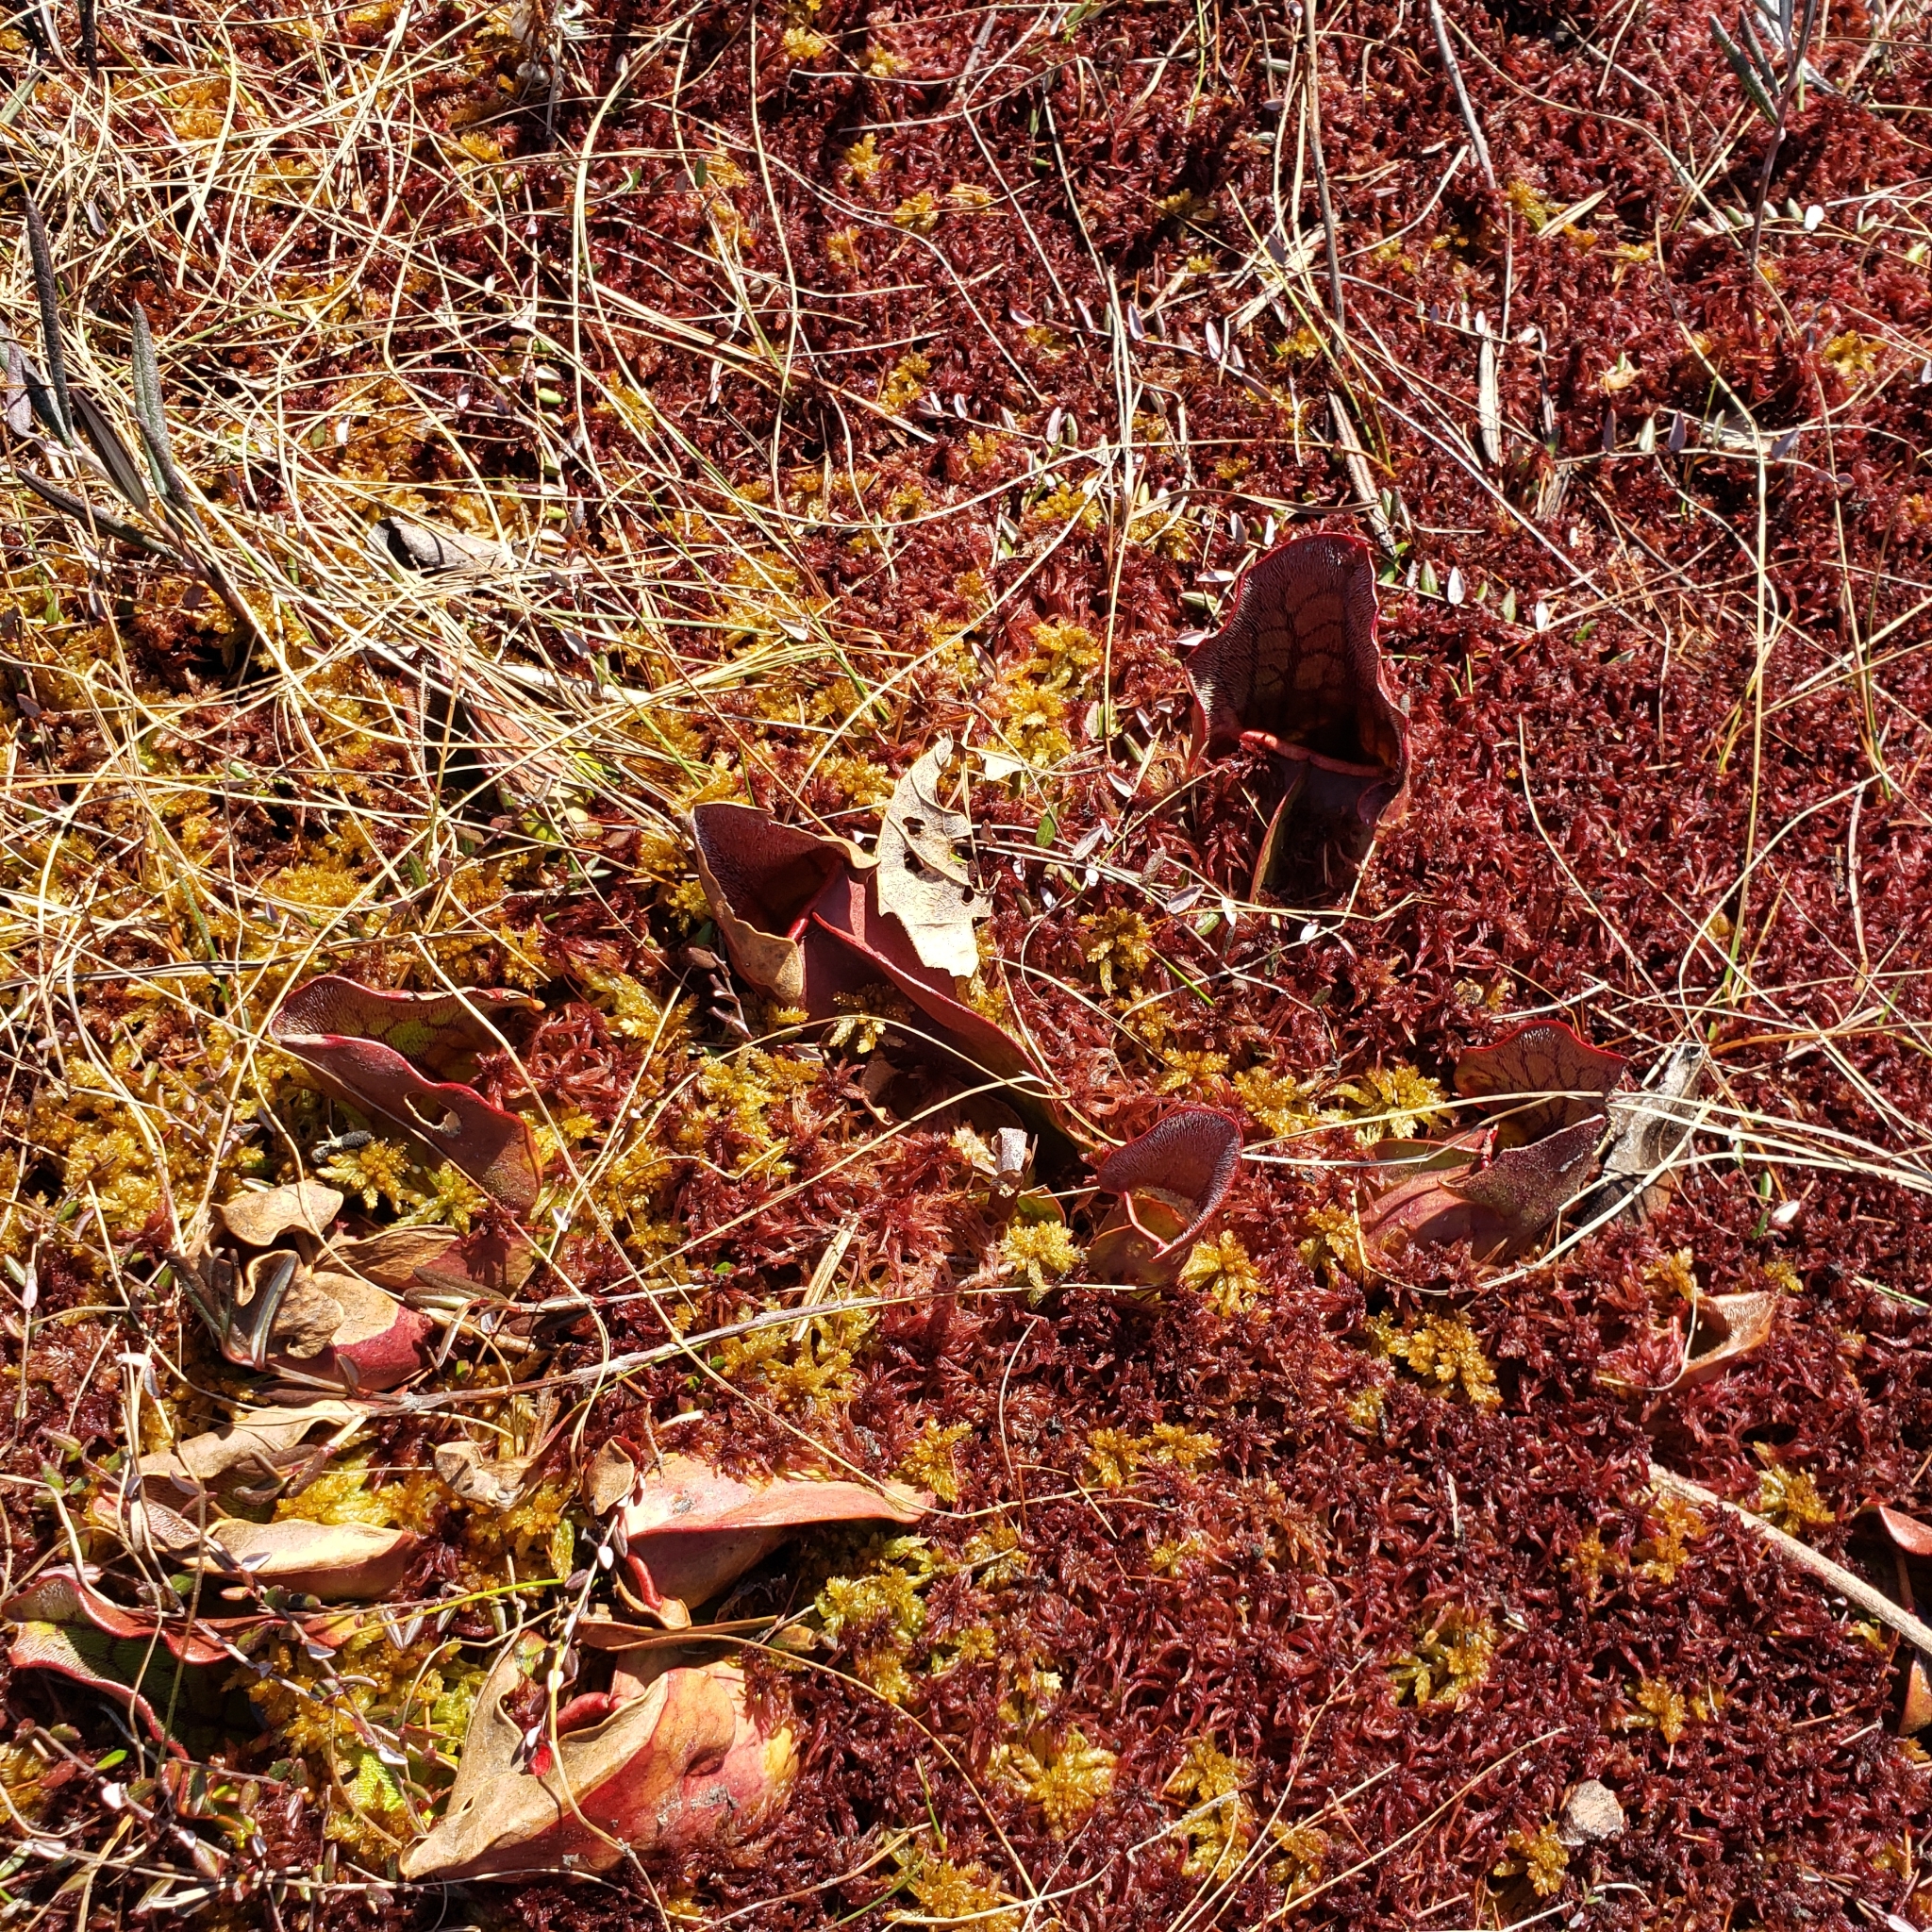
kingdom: Plantae
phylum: Tracheophyta
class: Magnoliopsida
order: Ericales
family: Sarraceniaceae
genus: Sarracenia
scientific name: Sarracenia purpurea
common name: Pitcherplant
